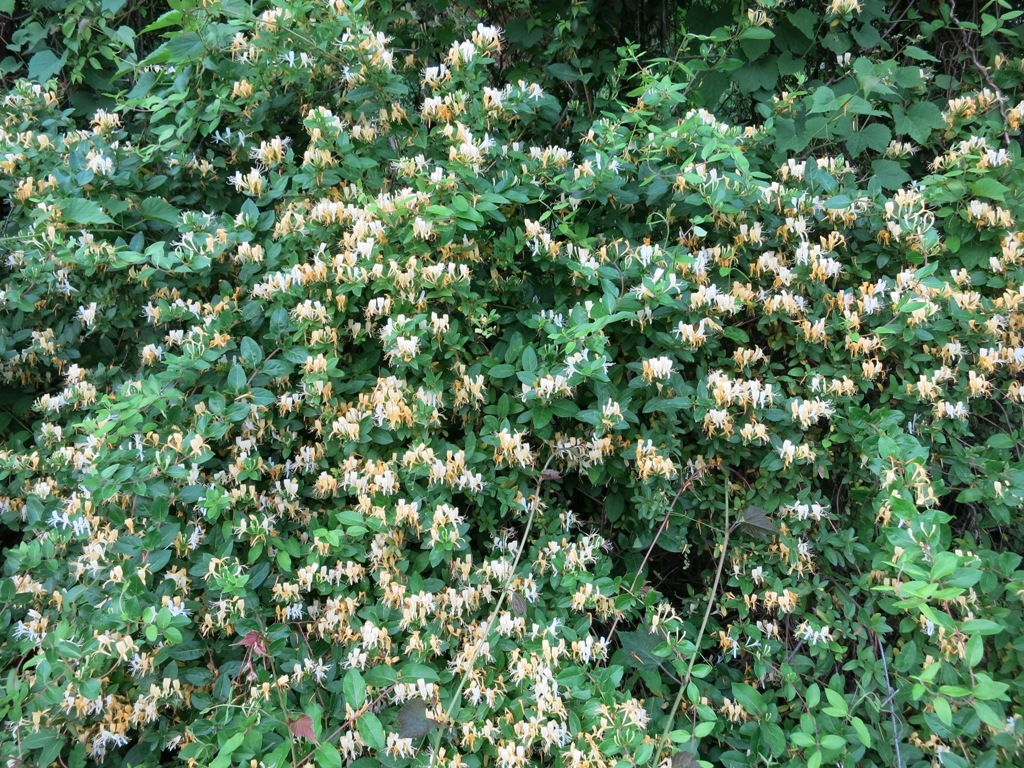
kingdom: Plantae
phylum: Tracheophyta
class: Magnoliopsida
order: Dipsacales
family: Caprifoliaceae
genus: Lonicera
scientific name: Lonicera japonica
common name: Japanese honeysuckle
